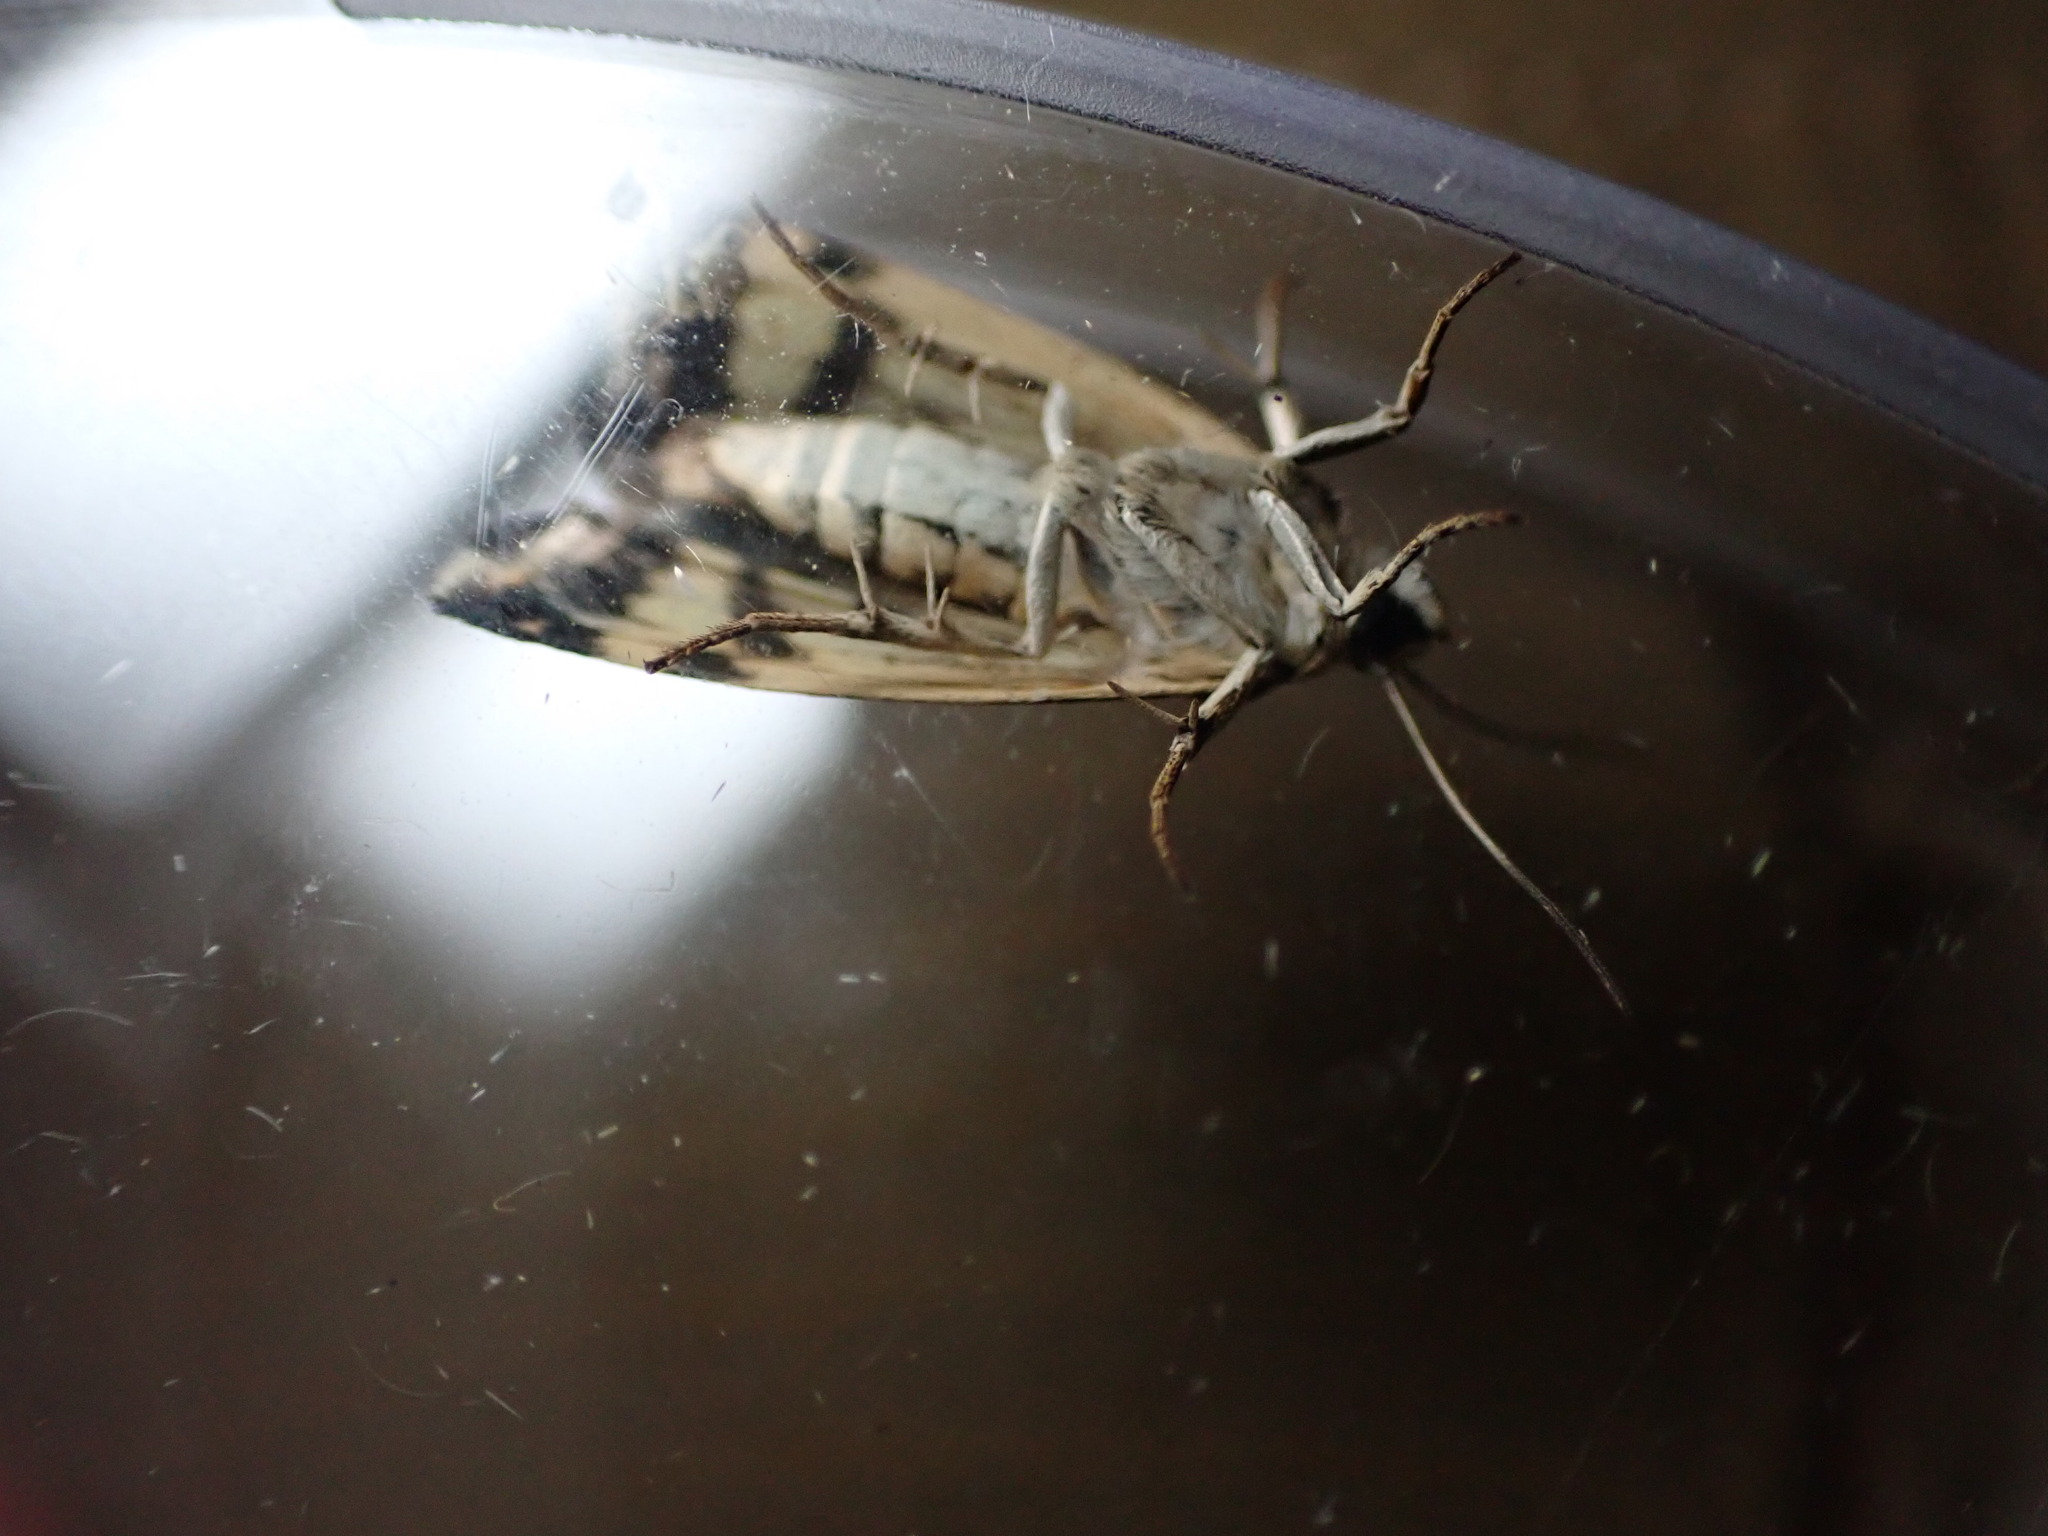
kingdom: Animalia
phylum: Arthropoda
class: Insecta
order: Lepidoptera
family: Noctuidae
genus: Acontia
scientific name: Acontia trabealis
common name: Spotted sulphur
